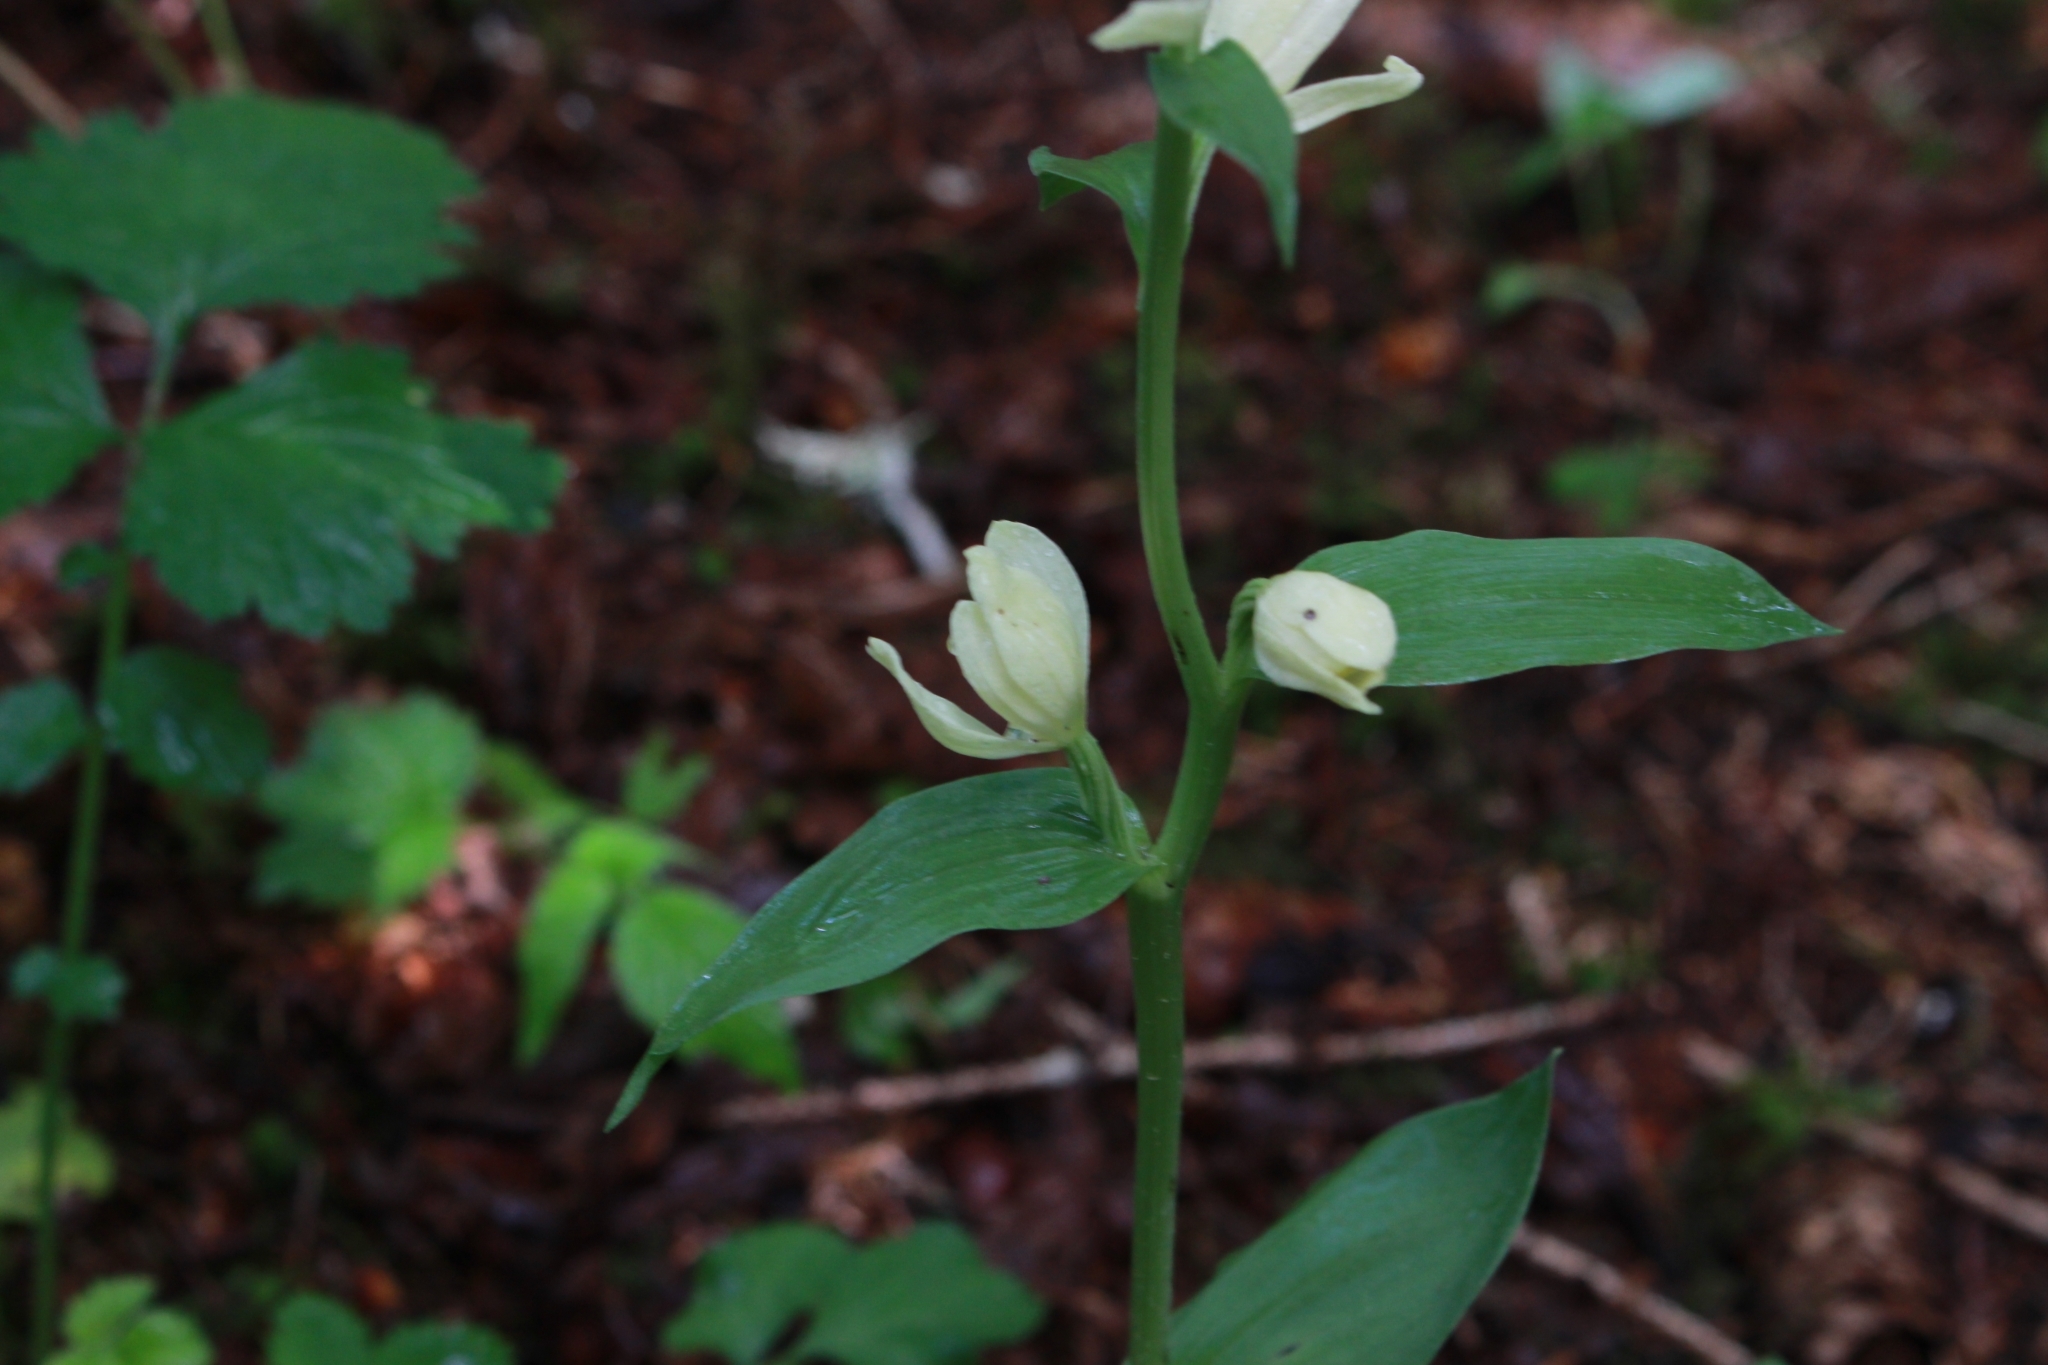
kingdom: Plantae
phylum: Tracheophyta
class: Liliopsida
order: Asparagales
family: Orchidaceae
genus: Cephalanthera
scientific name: Cephalanthera damasonium
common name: White helleborine
